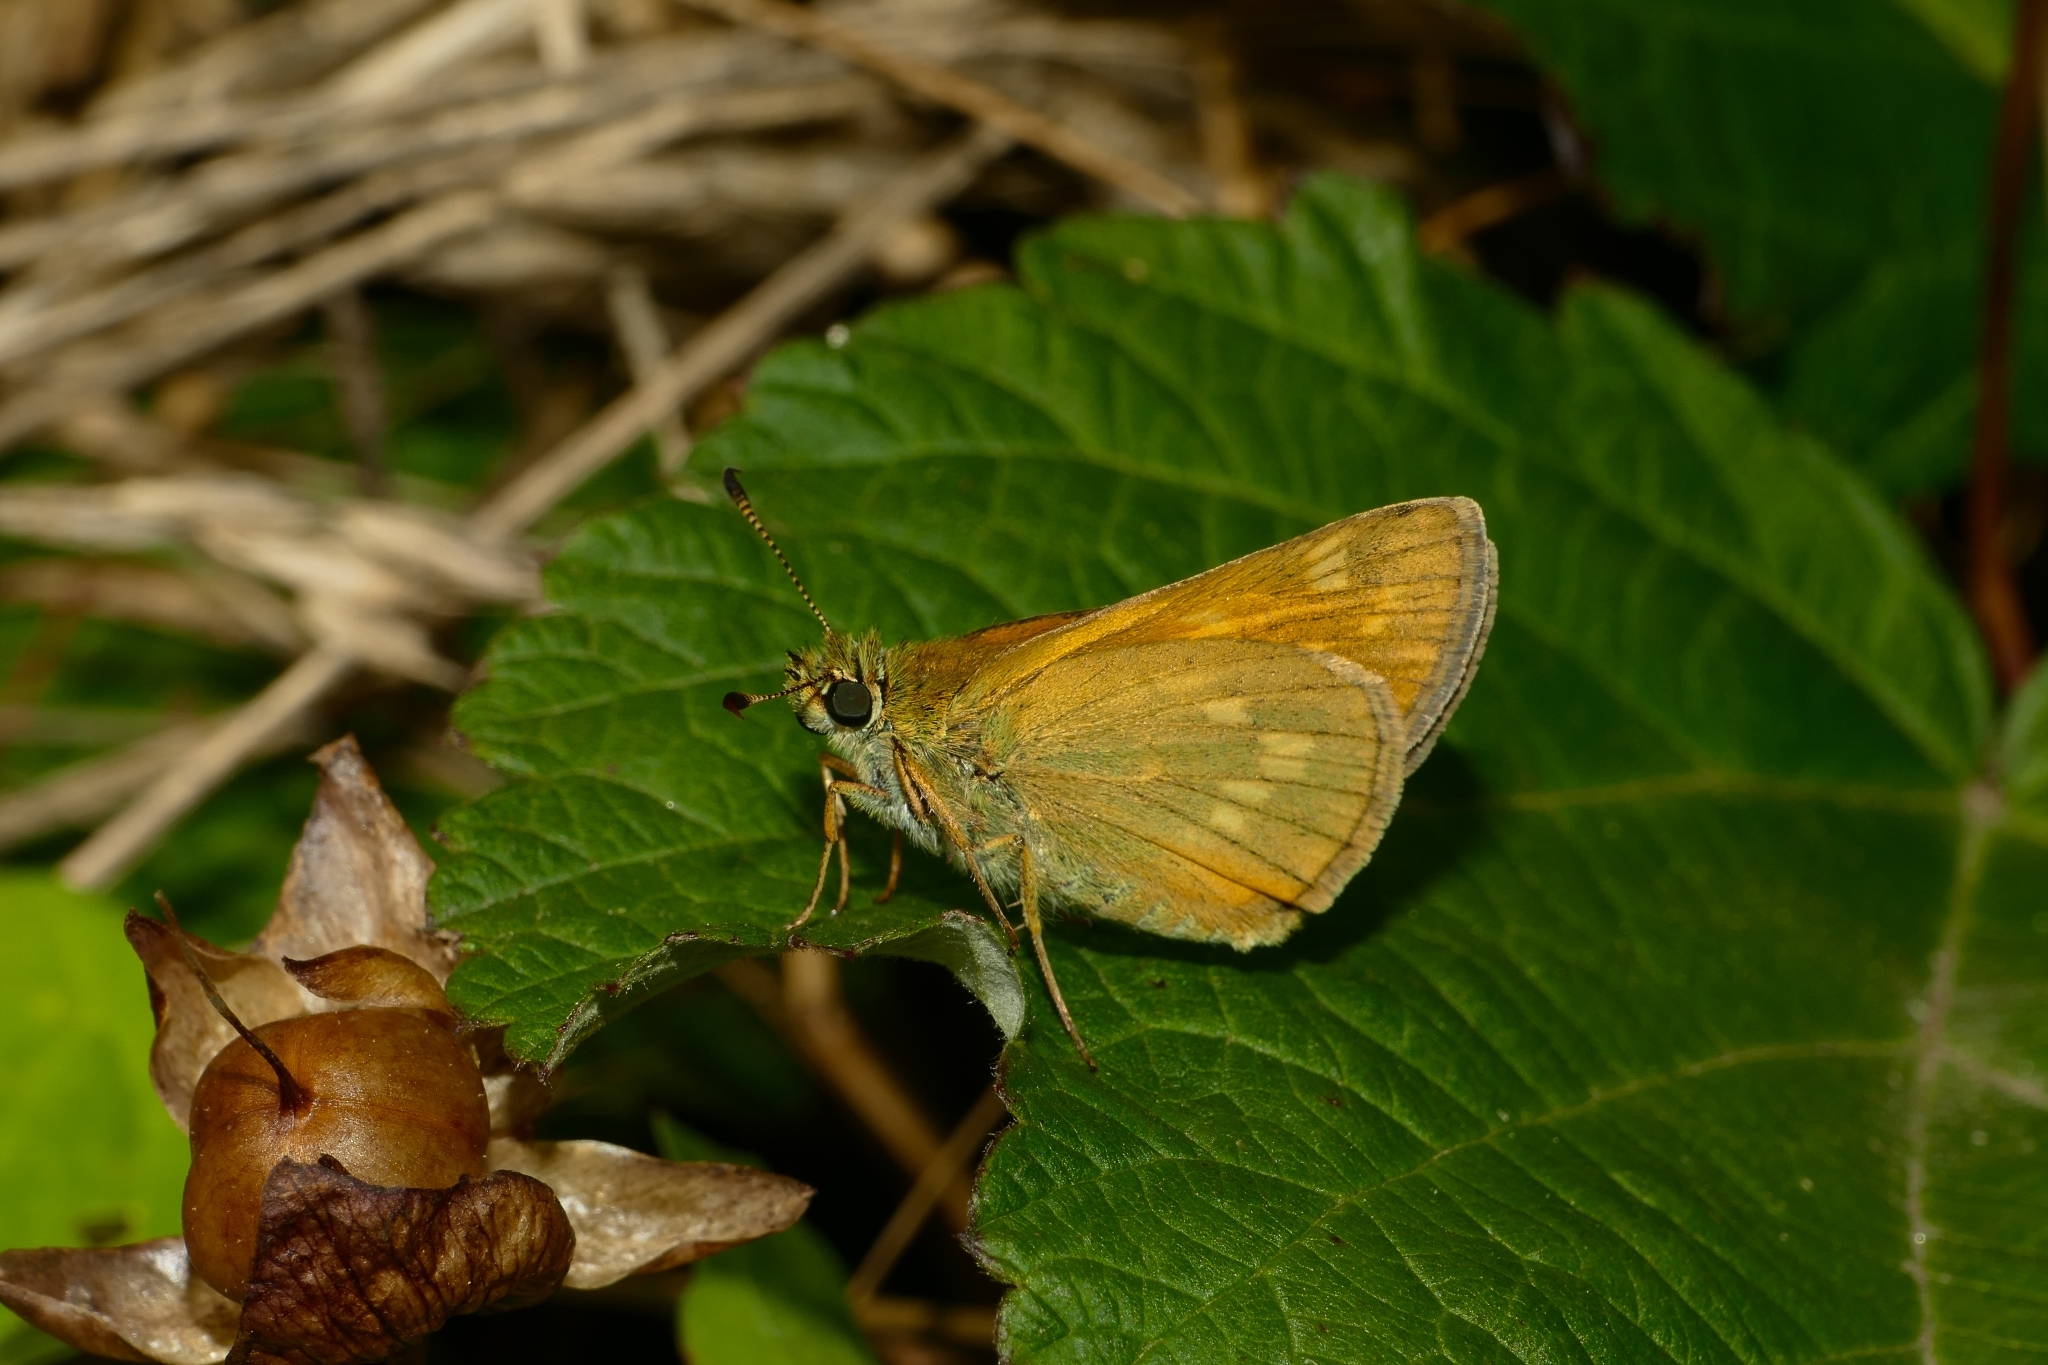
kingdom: Animalia
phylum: Arthropoda
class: Insecta
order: Lepidoptera
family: Hesperiidae
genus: Ochlodes
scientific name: Ochlodes venata
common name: Large skipper
